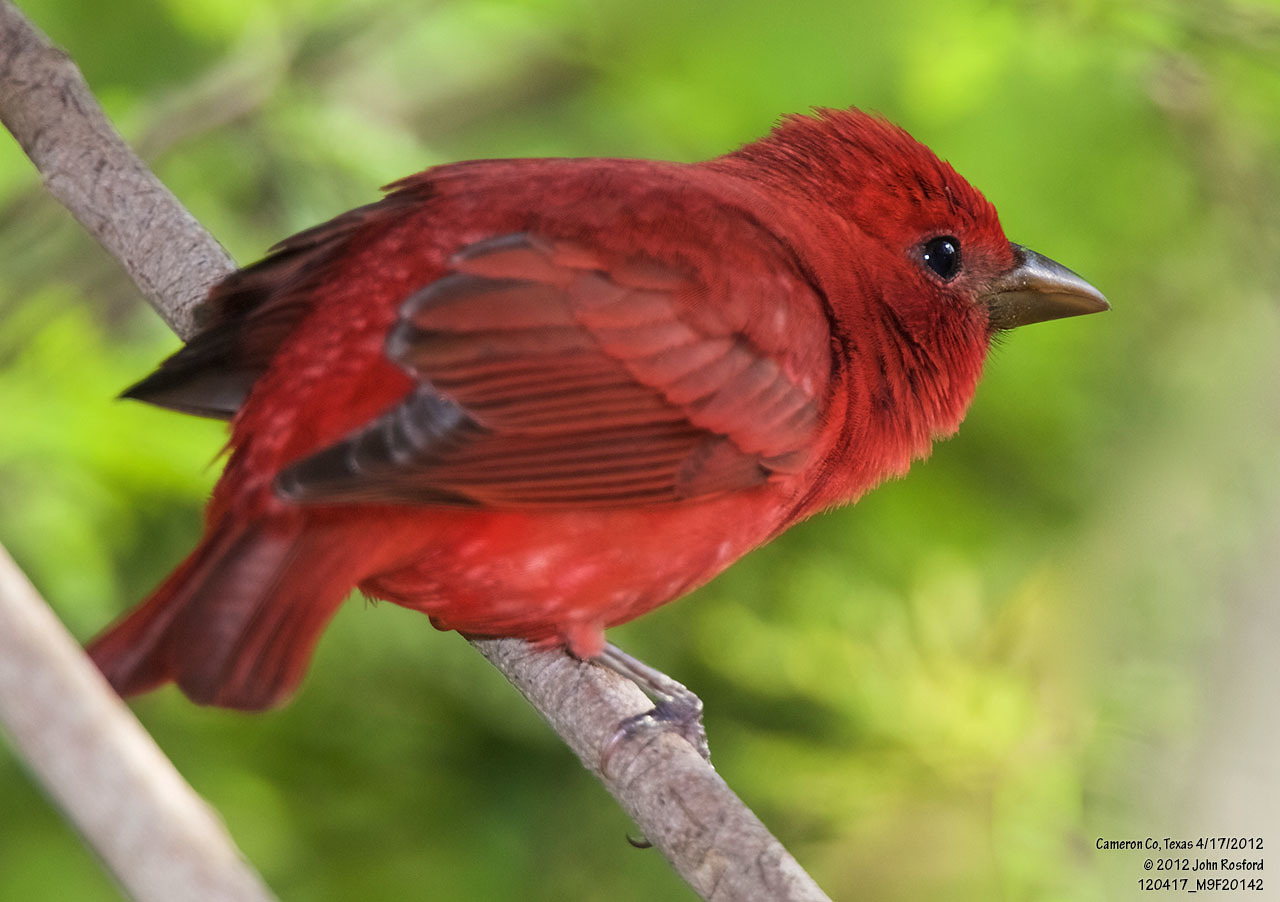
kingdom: Animalia
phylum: Chordata
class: Aves
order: Passeriformes
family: Cardinalidae
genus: Piranga
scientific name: Piranga rubra
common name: Summer tanager
